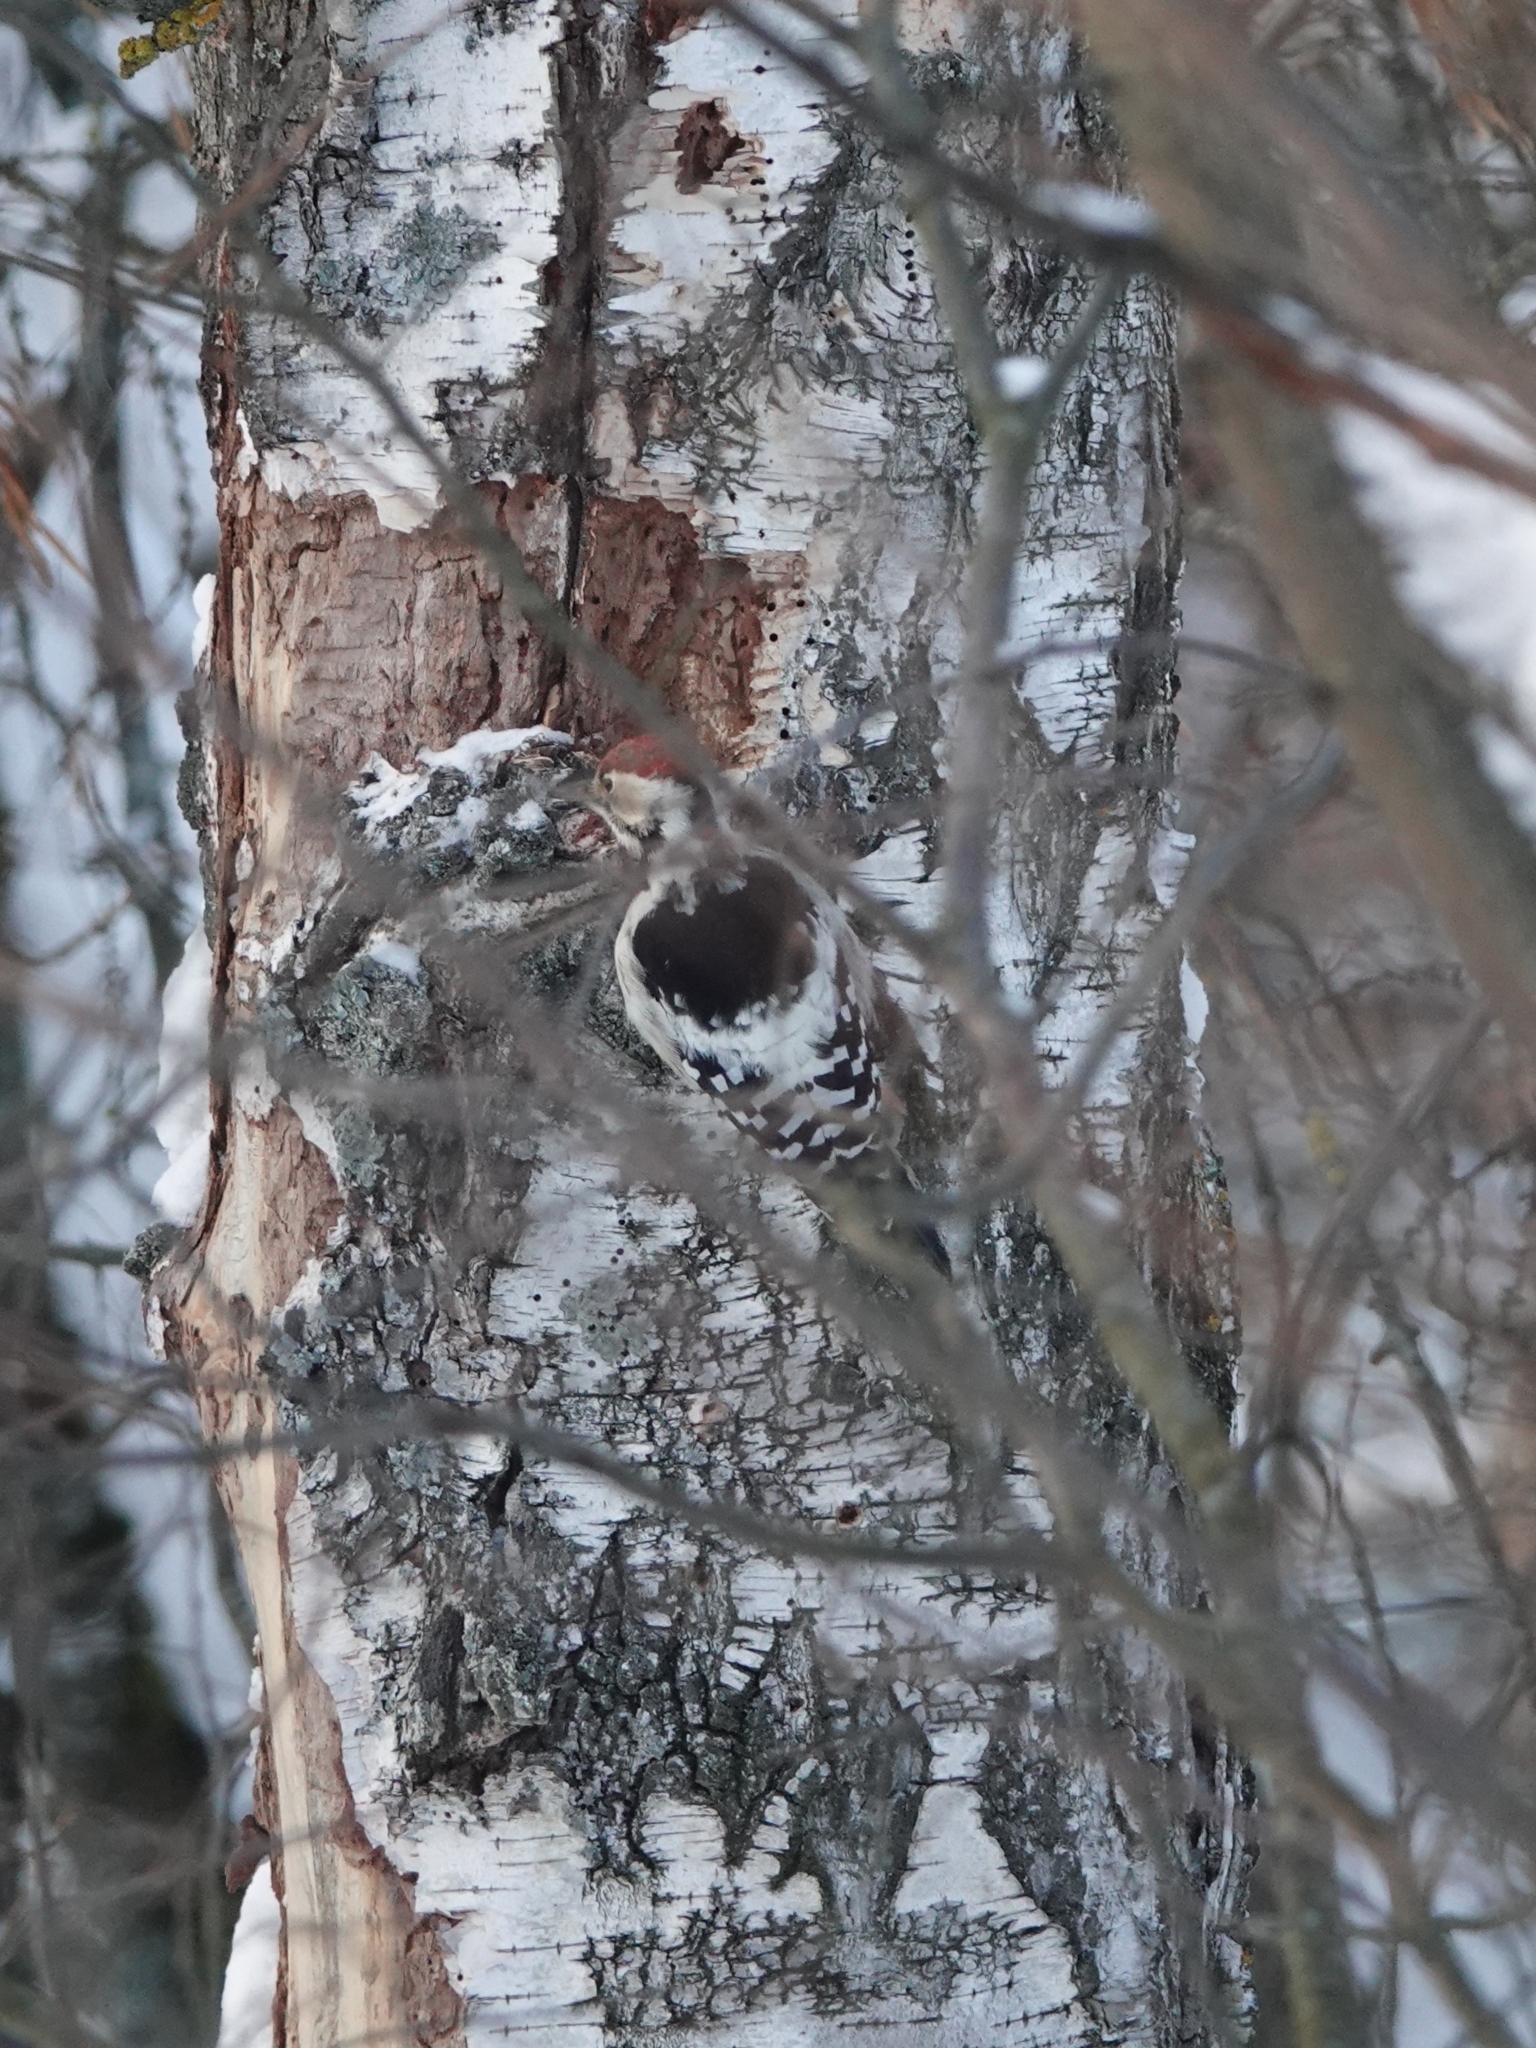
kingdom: Animalia
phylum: Chordata
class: Aves
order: Piciformes
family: Picidae
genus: Dendrocopos
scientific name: Dendrocopos leucotos
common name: White-backed woodpecker
